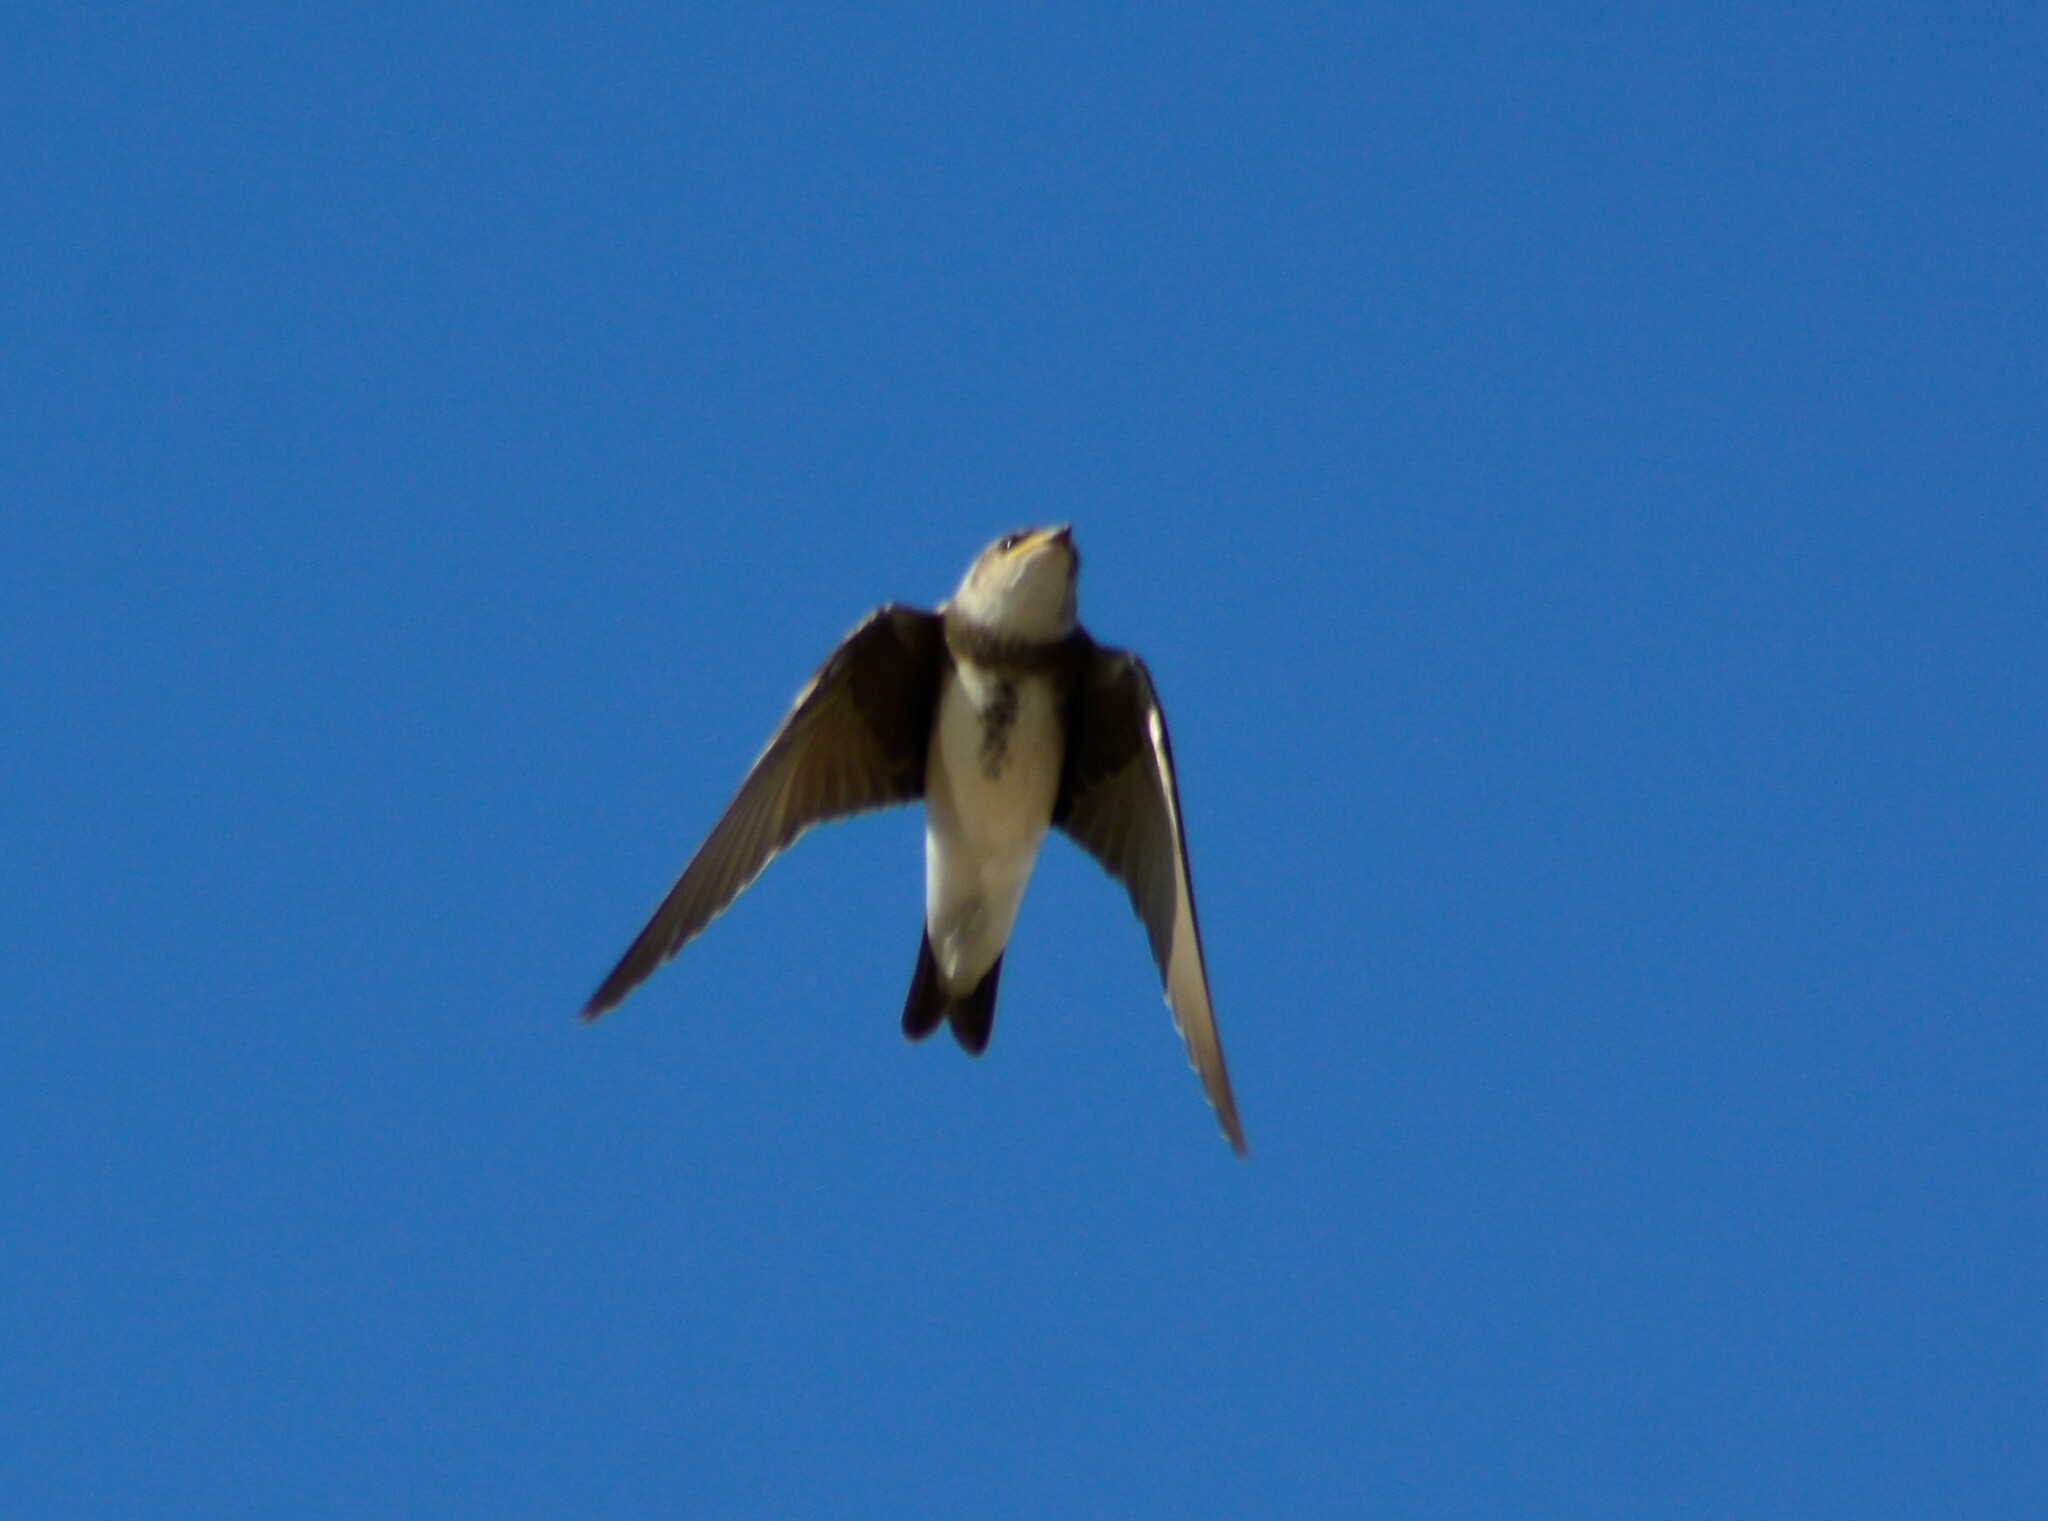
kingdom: Animalia
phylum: Chordata
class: Aves
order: Passeriformes
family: Hirundinidae
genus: Progne
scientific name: Progne tapera
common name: Brown-chested martin
